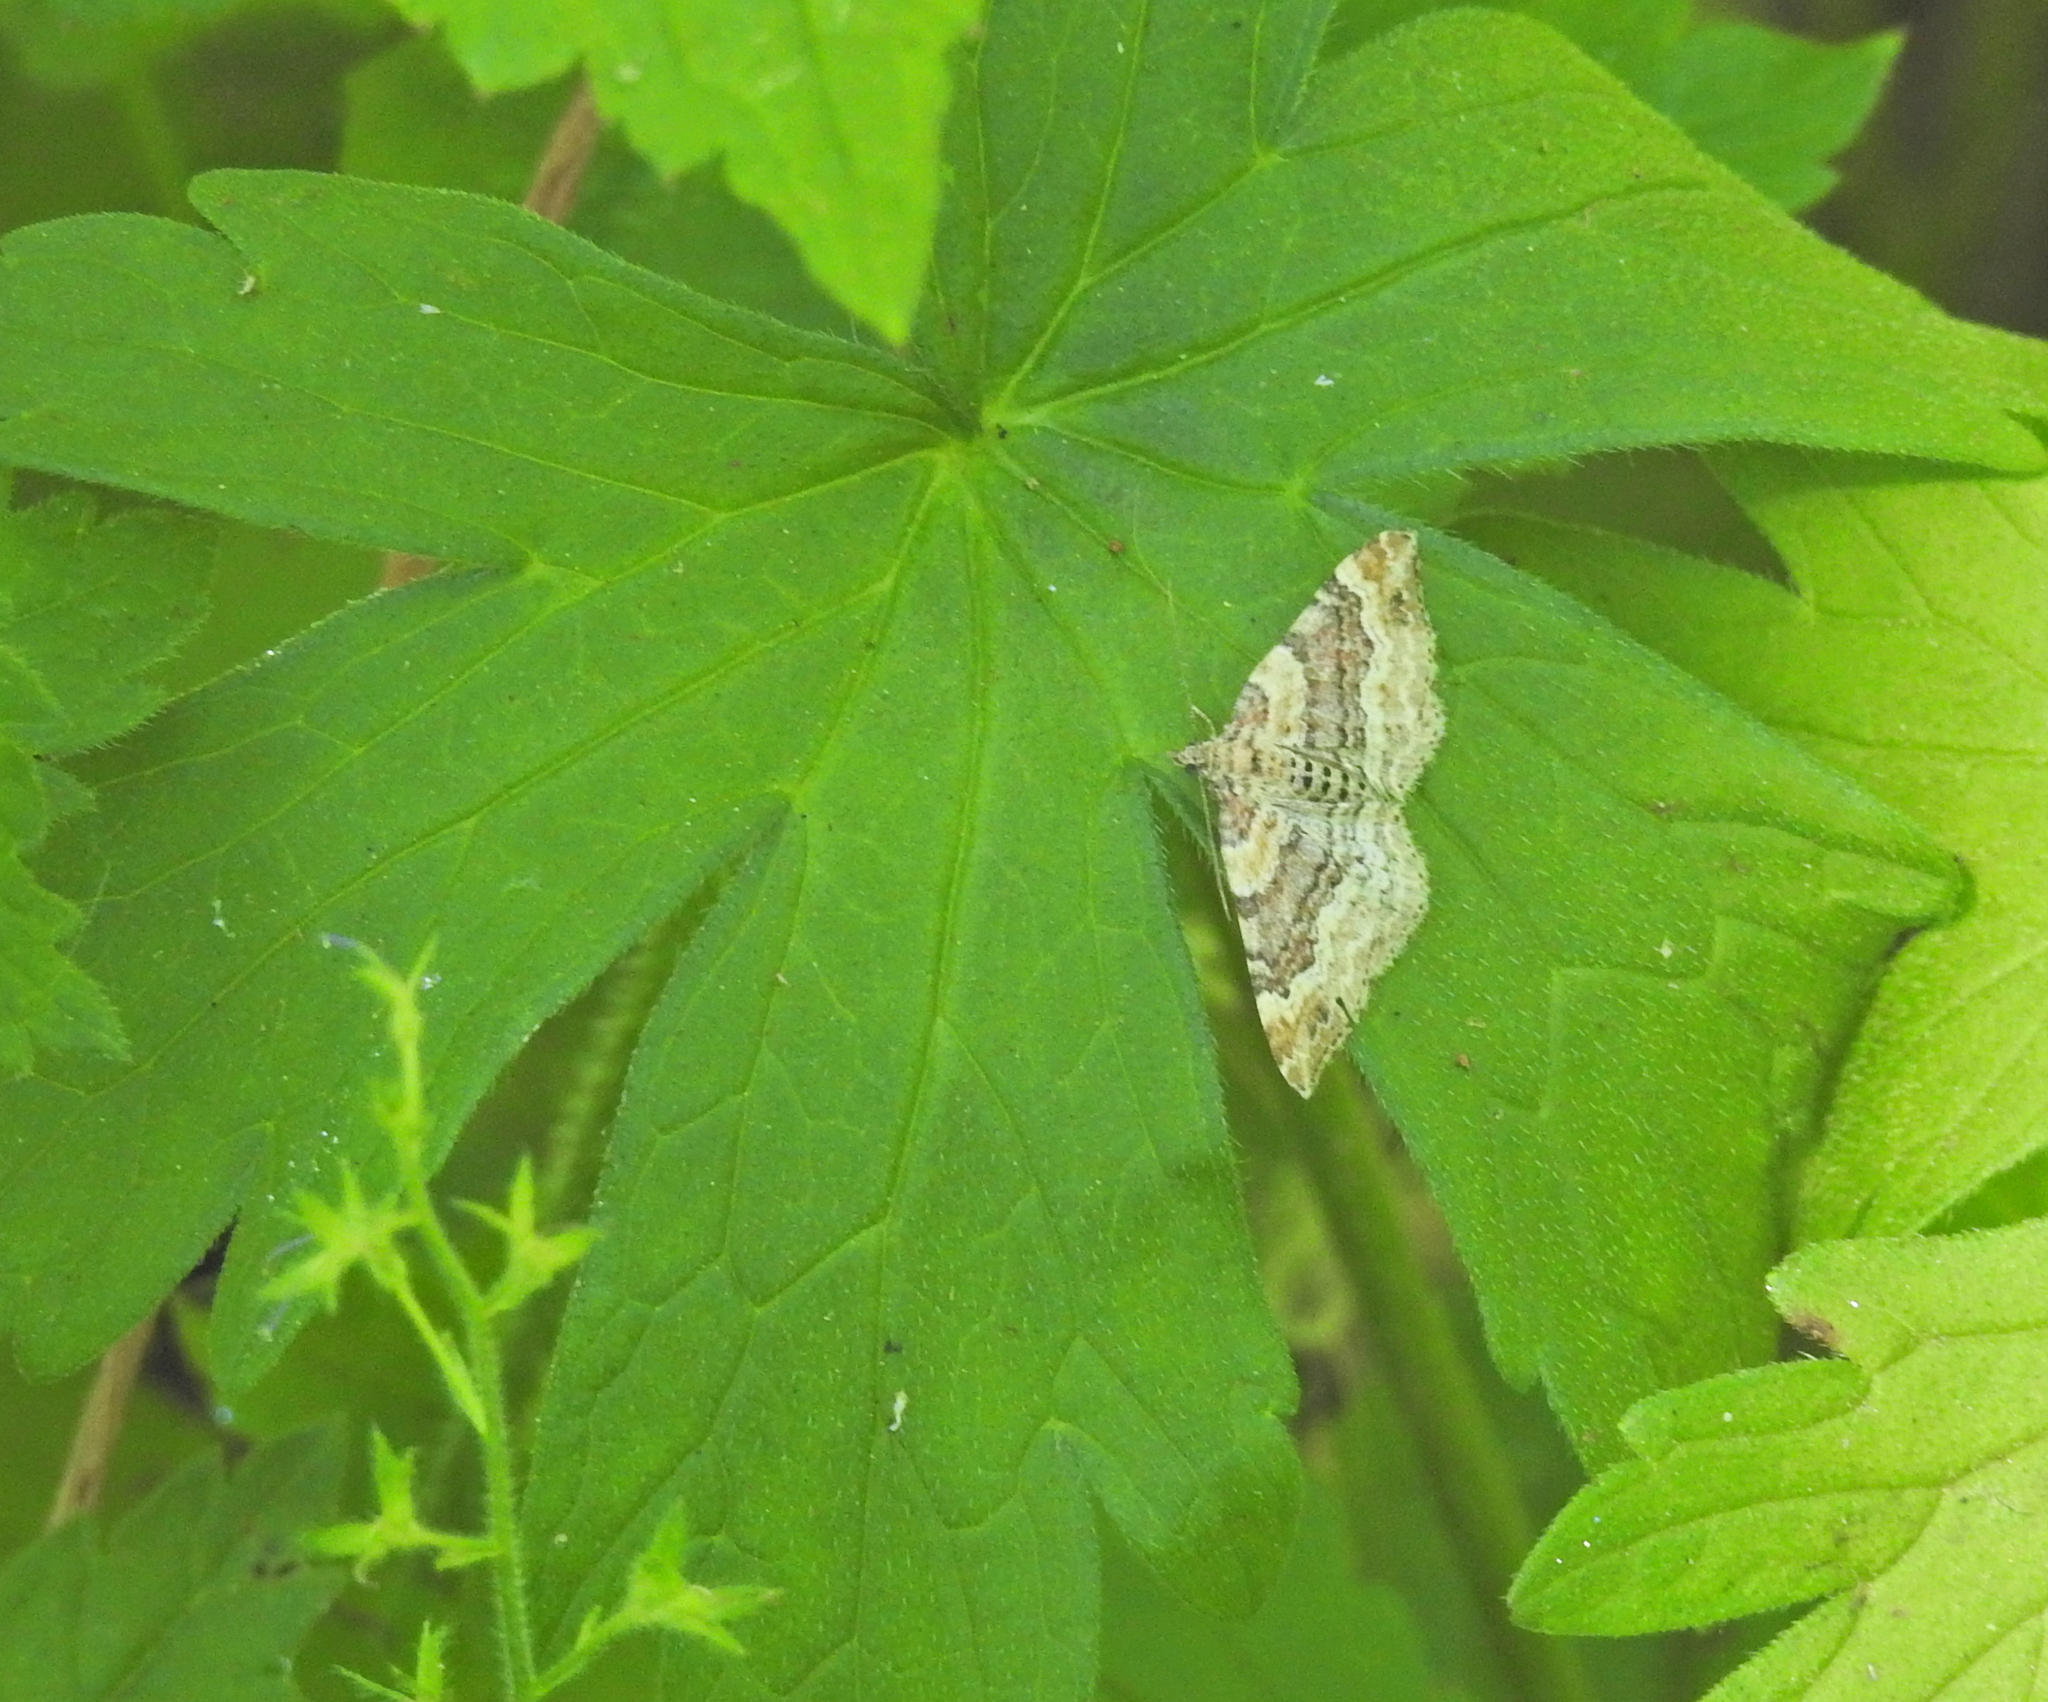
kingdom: Animalia
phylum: Arthropoda
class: Insecta
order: Lepidoptera
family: Geometridae
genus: Xanthorhoe
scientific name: Xanthorhoe spadicearia
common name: Red twin-spot carpet
